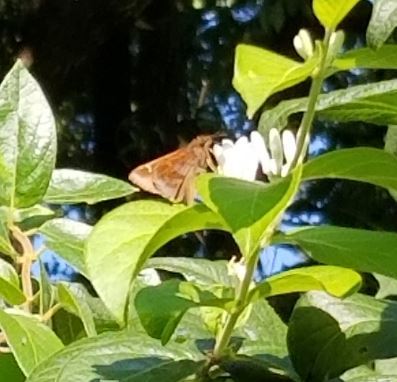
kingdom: Animalia
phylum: Arthropoda
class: Insecta
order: Lepidoptera
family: Hesperiidae
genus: Lerema
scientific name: Lerema accius
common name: Clouded skipper
